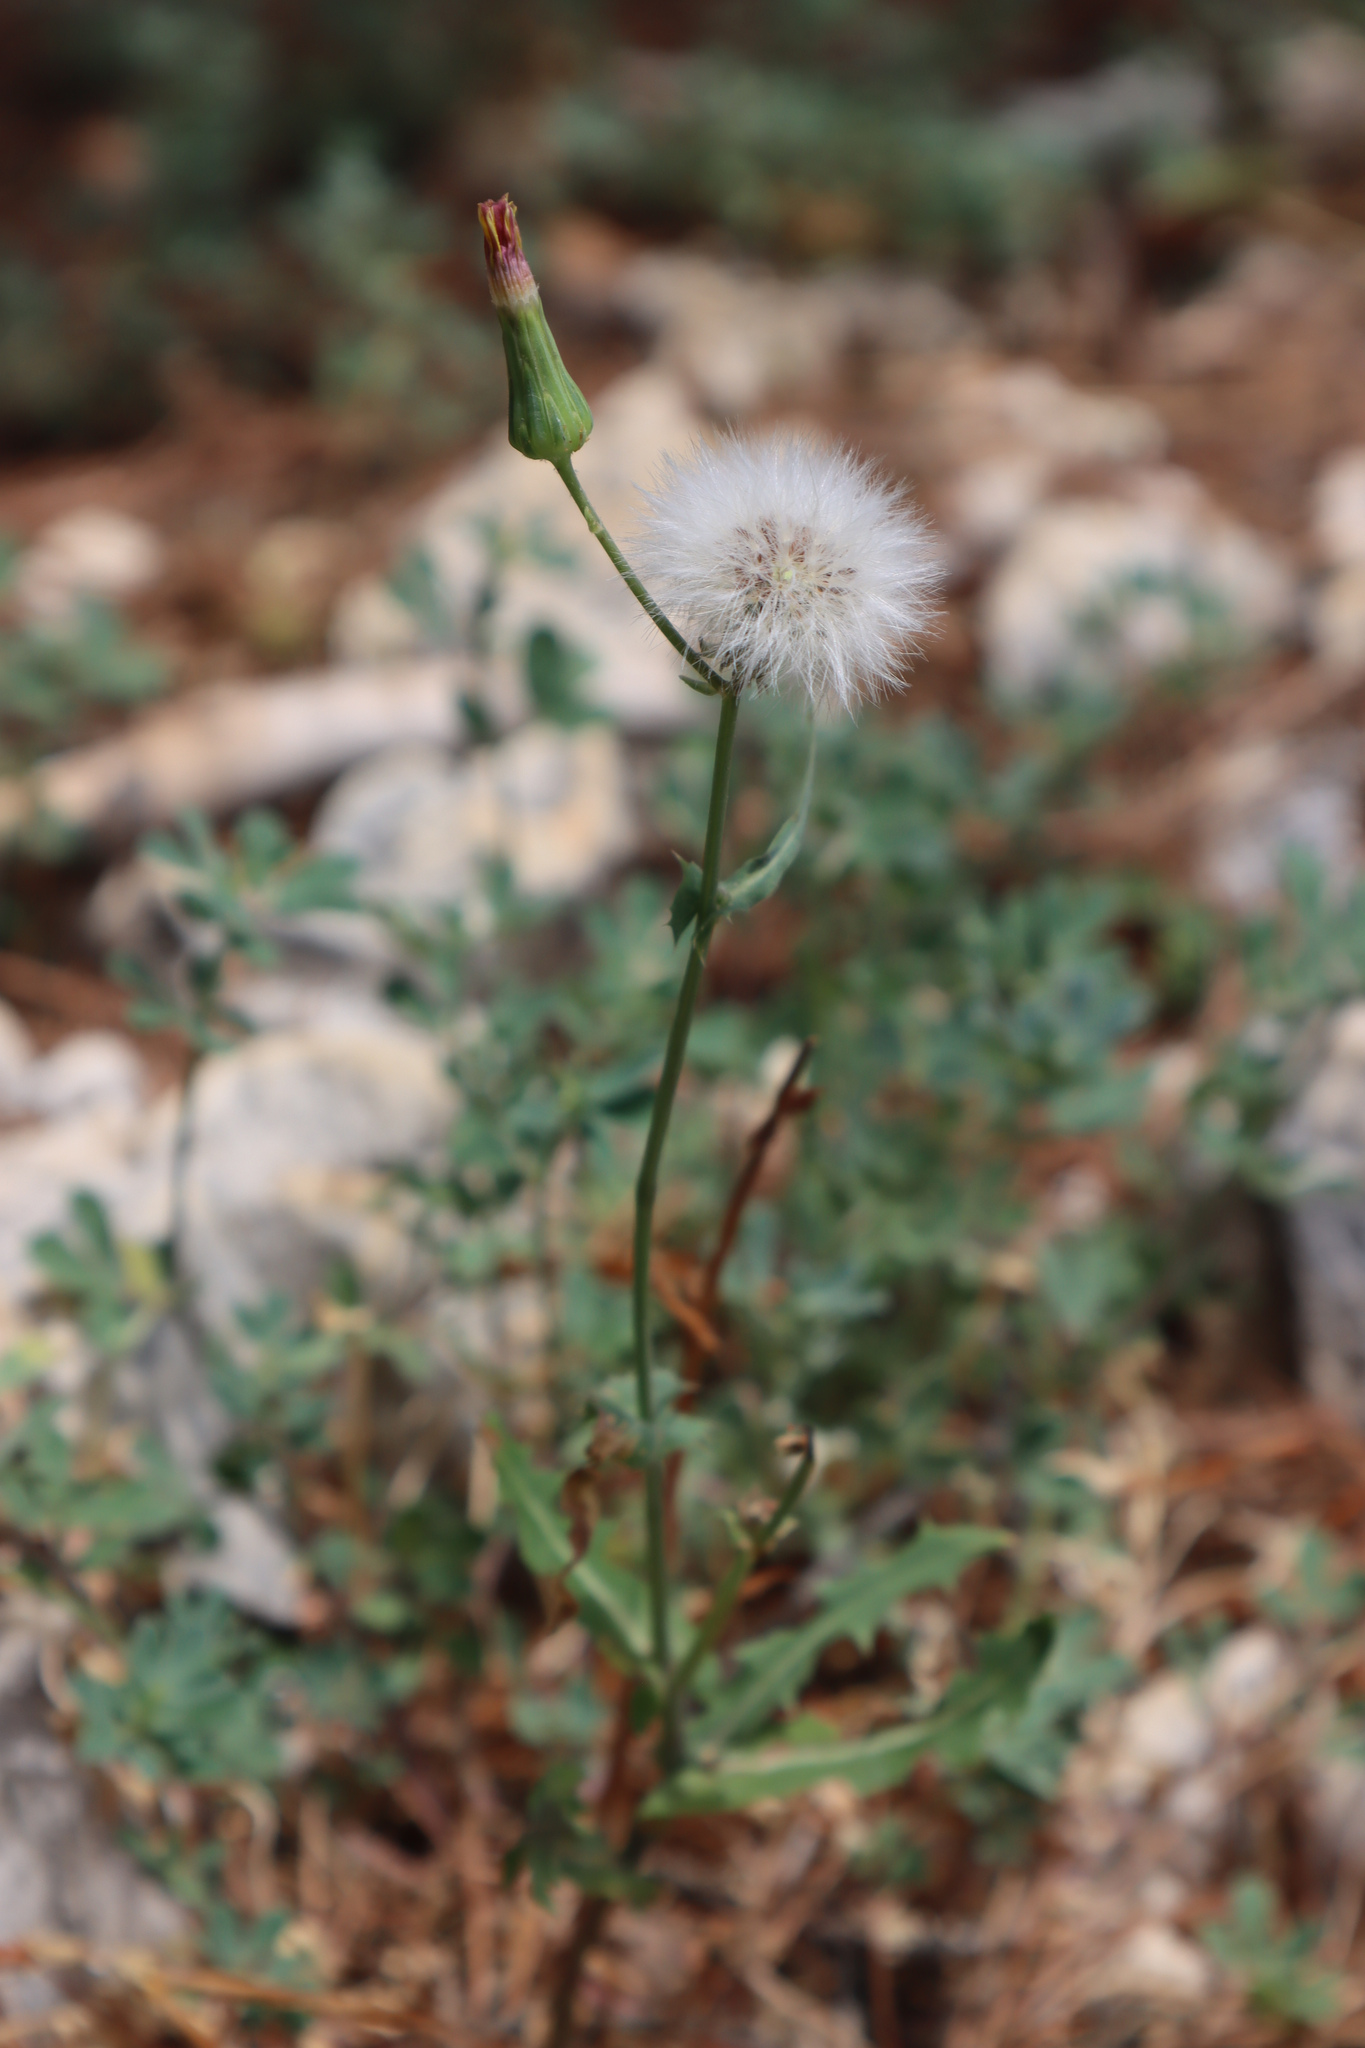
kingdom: Plantae
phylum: Tracheophyta
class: Magnoliopsida
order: Asterales
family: Asteraceae
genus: Sonchus
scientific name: Sonchus oleraceus
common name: Common sowthistle
